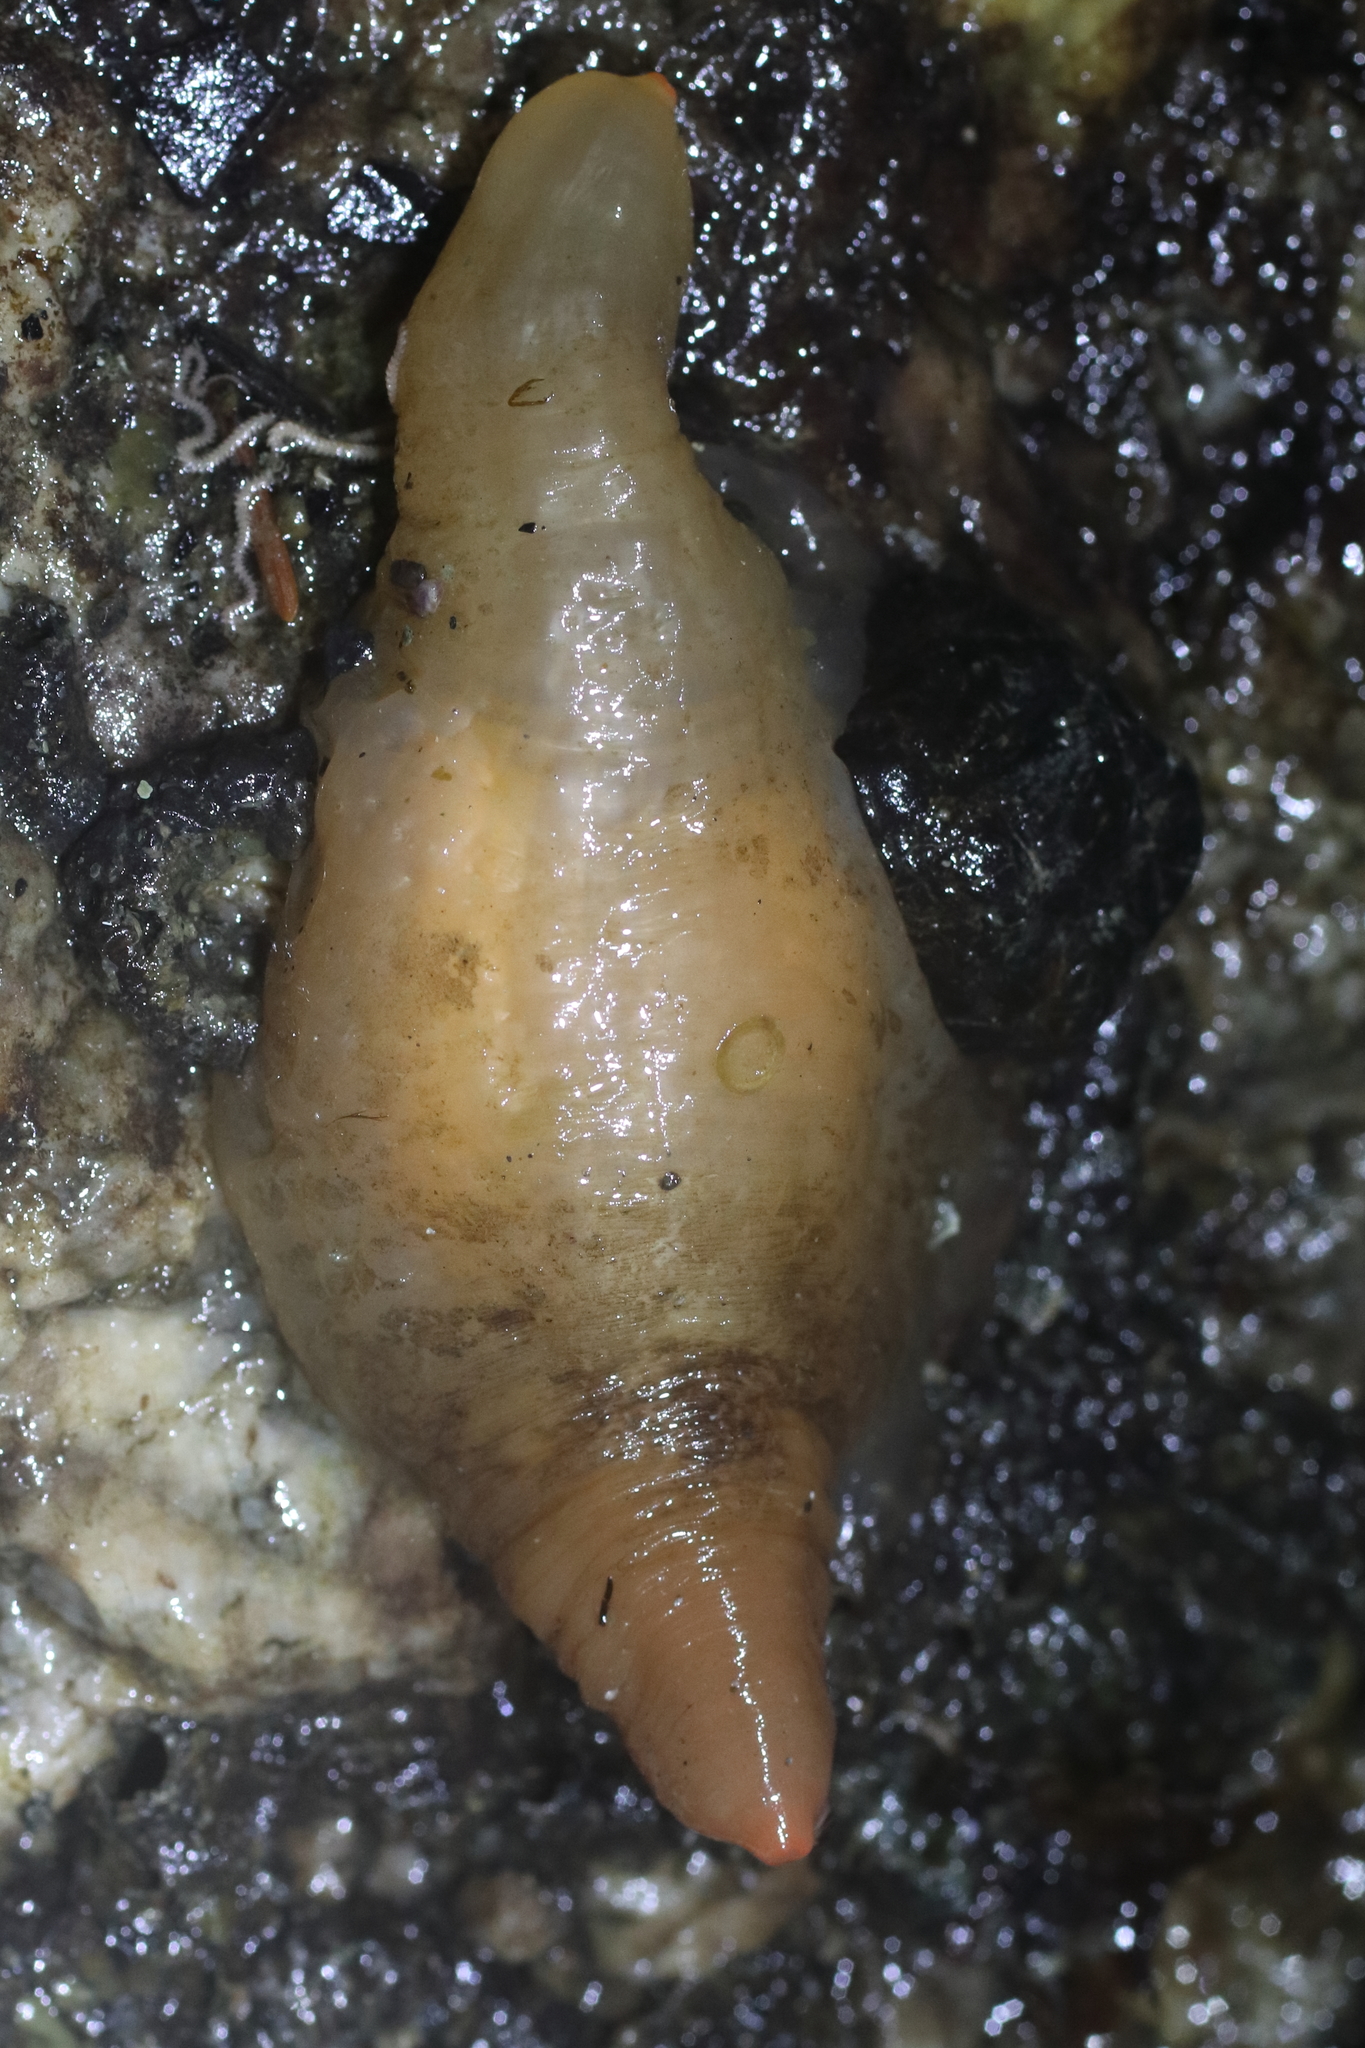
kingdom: Animalia
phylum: Chordata
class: Ascidiacea
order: Stolidobranchia
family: Pyuridae
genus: Pyura
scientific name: Pyura mirabilis
